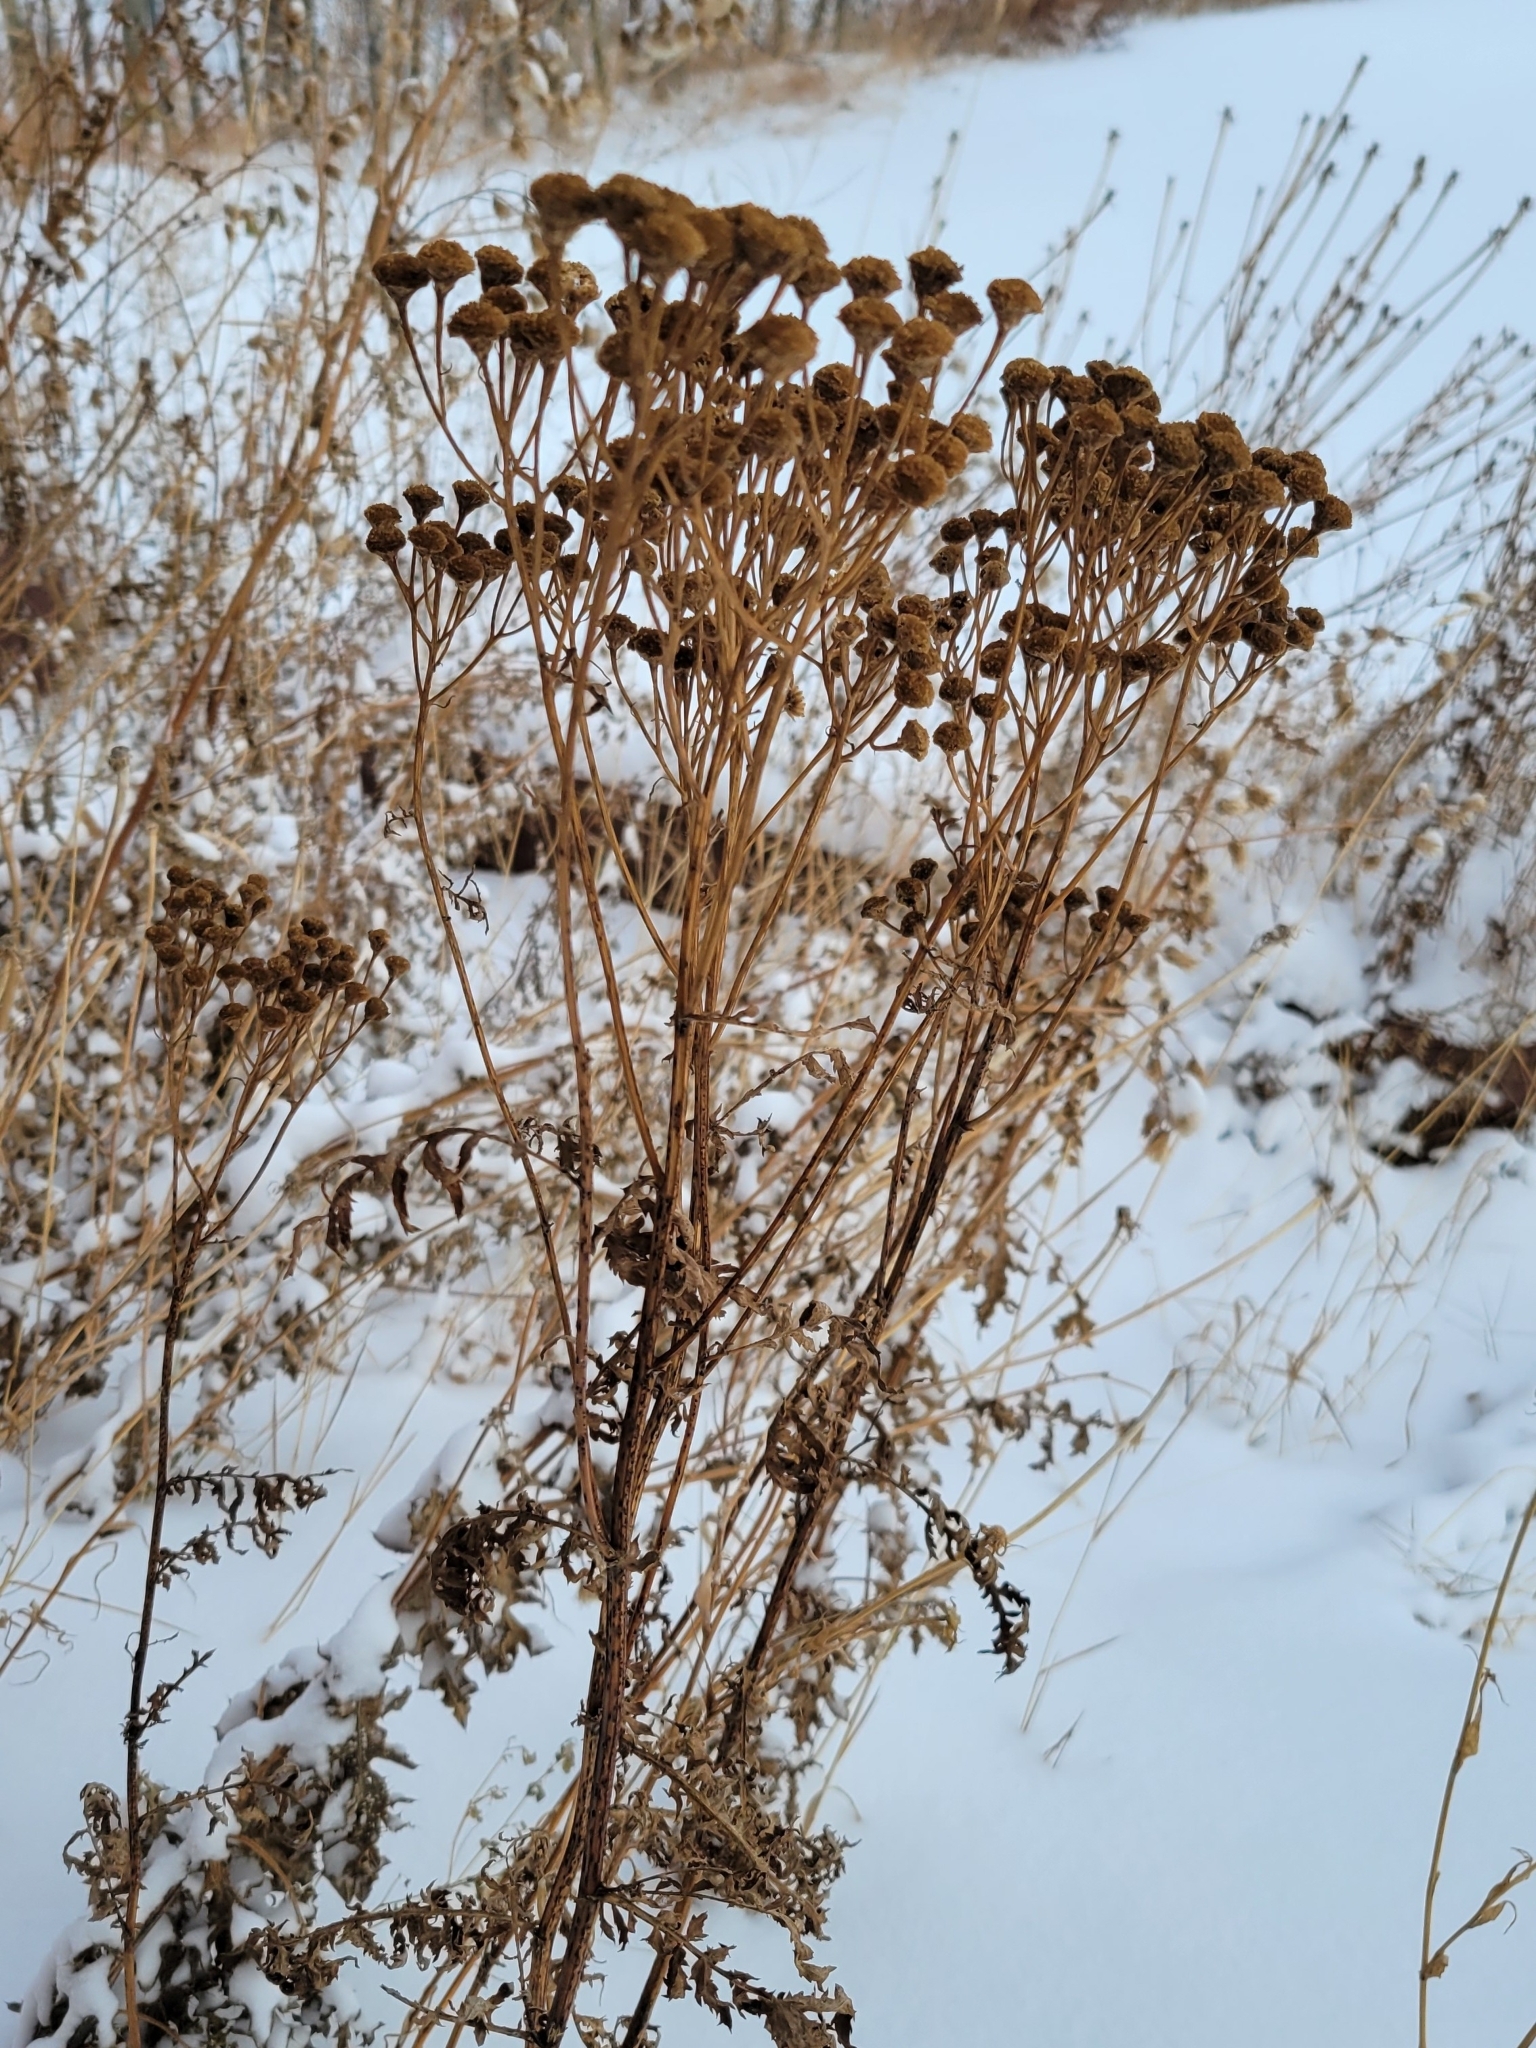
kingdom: Plantae
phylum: Tracheophyta
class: Magnoliopsida
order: Asterales
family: Asteraceae
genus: Tanacetum
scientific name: Tanacetum vulgare
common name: Common tansy
